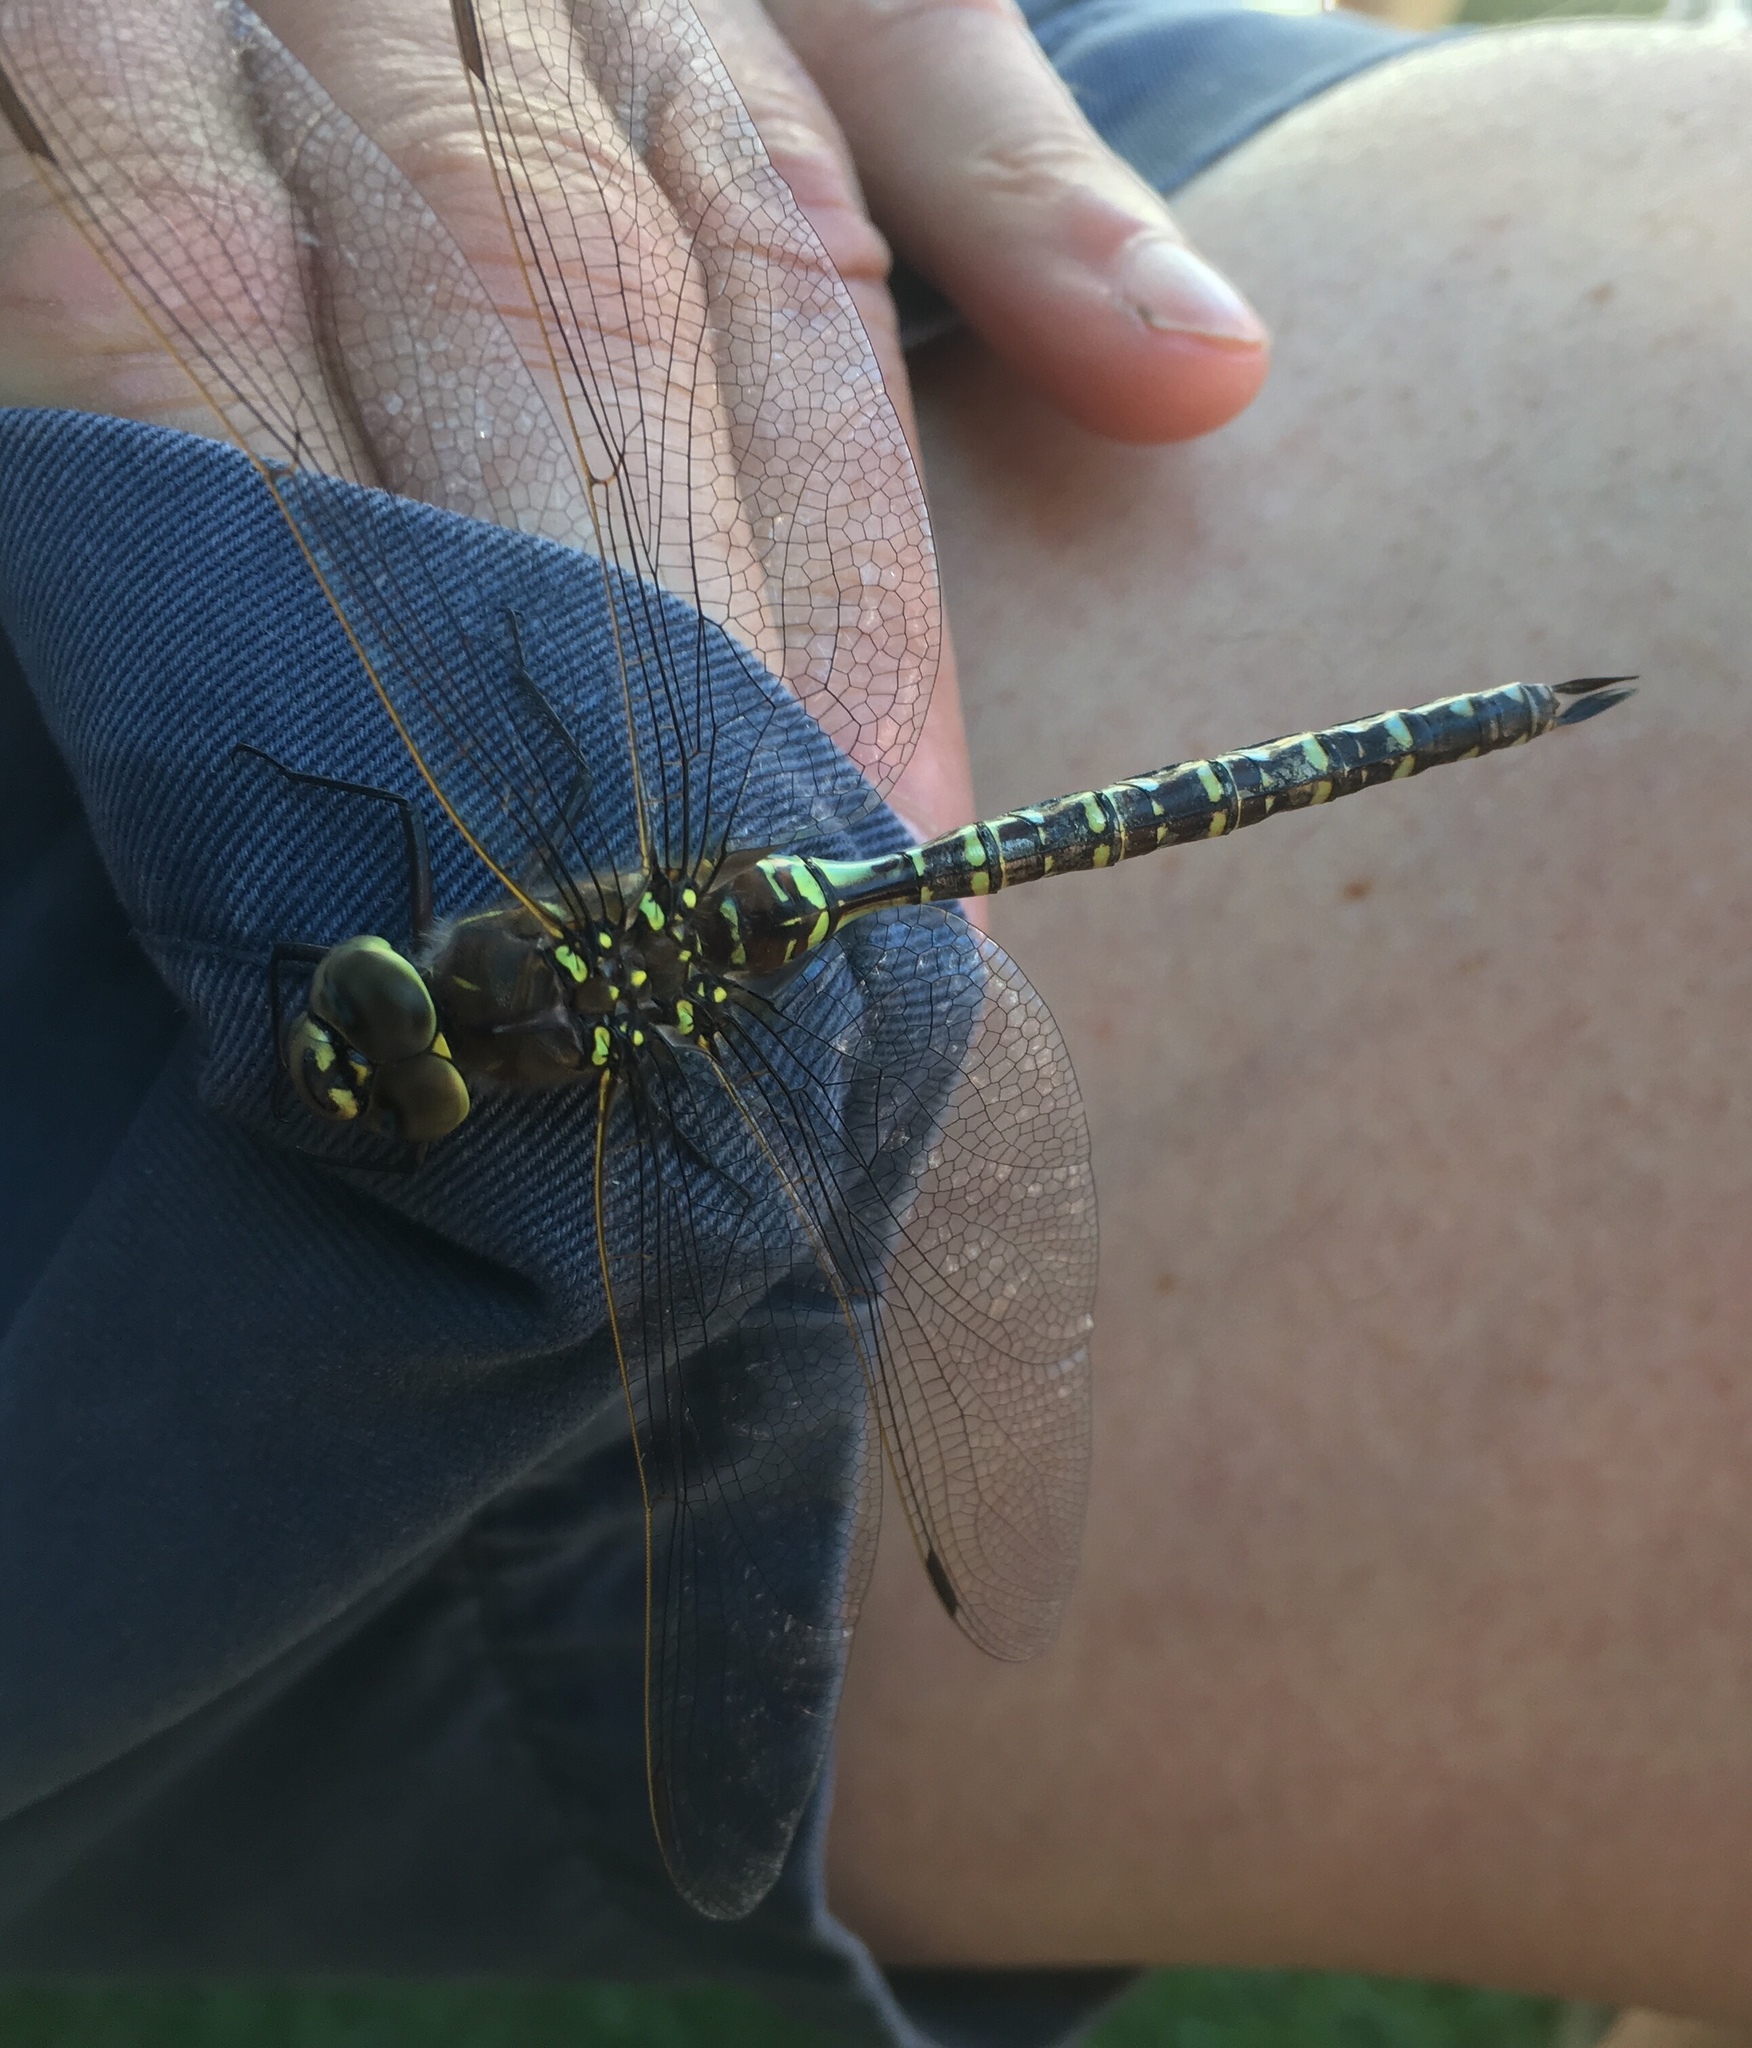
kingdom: Animalia
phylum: Arthropoda
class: Insecta
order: Odonata
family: Aeshnidae
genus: Aeshna
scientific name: Aeshna interrupta
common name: Variable darner
